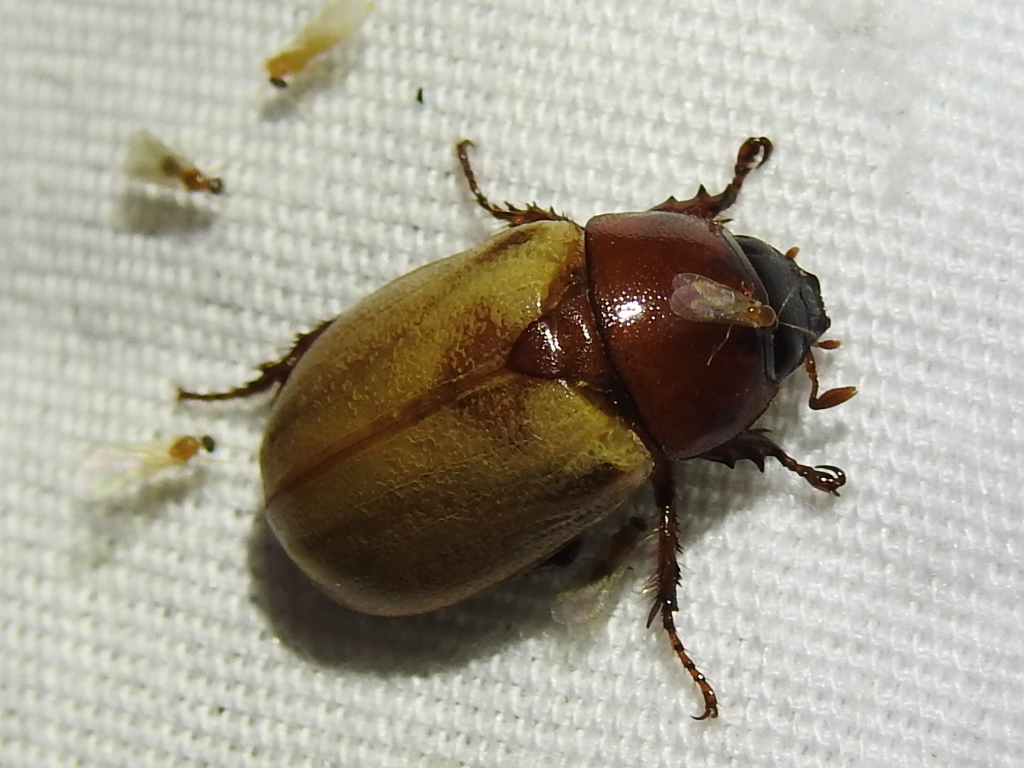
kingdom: Animalia
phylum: Arthropoda
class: Insecta
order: Coleoptera
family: Scarabaeidae
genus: Cyclocephala
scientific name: Cyclocephala melanocephala
